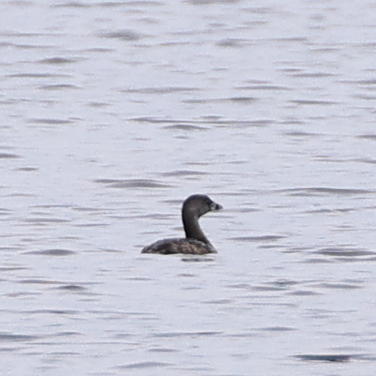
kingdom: Animalia
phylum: Chordata
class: Aves
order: Podicipediformes
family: Podicipedidae
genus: Podilymbus
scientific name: Podilymbus podiceps
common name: Pied-billed grebe
